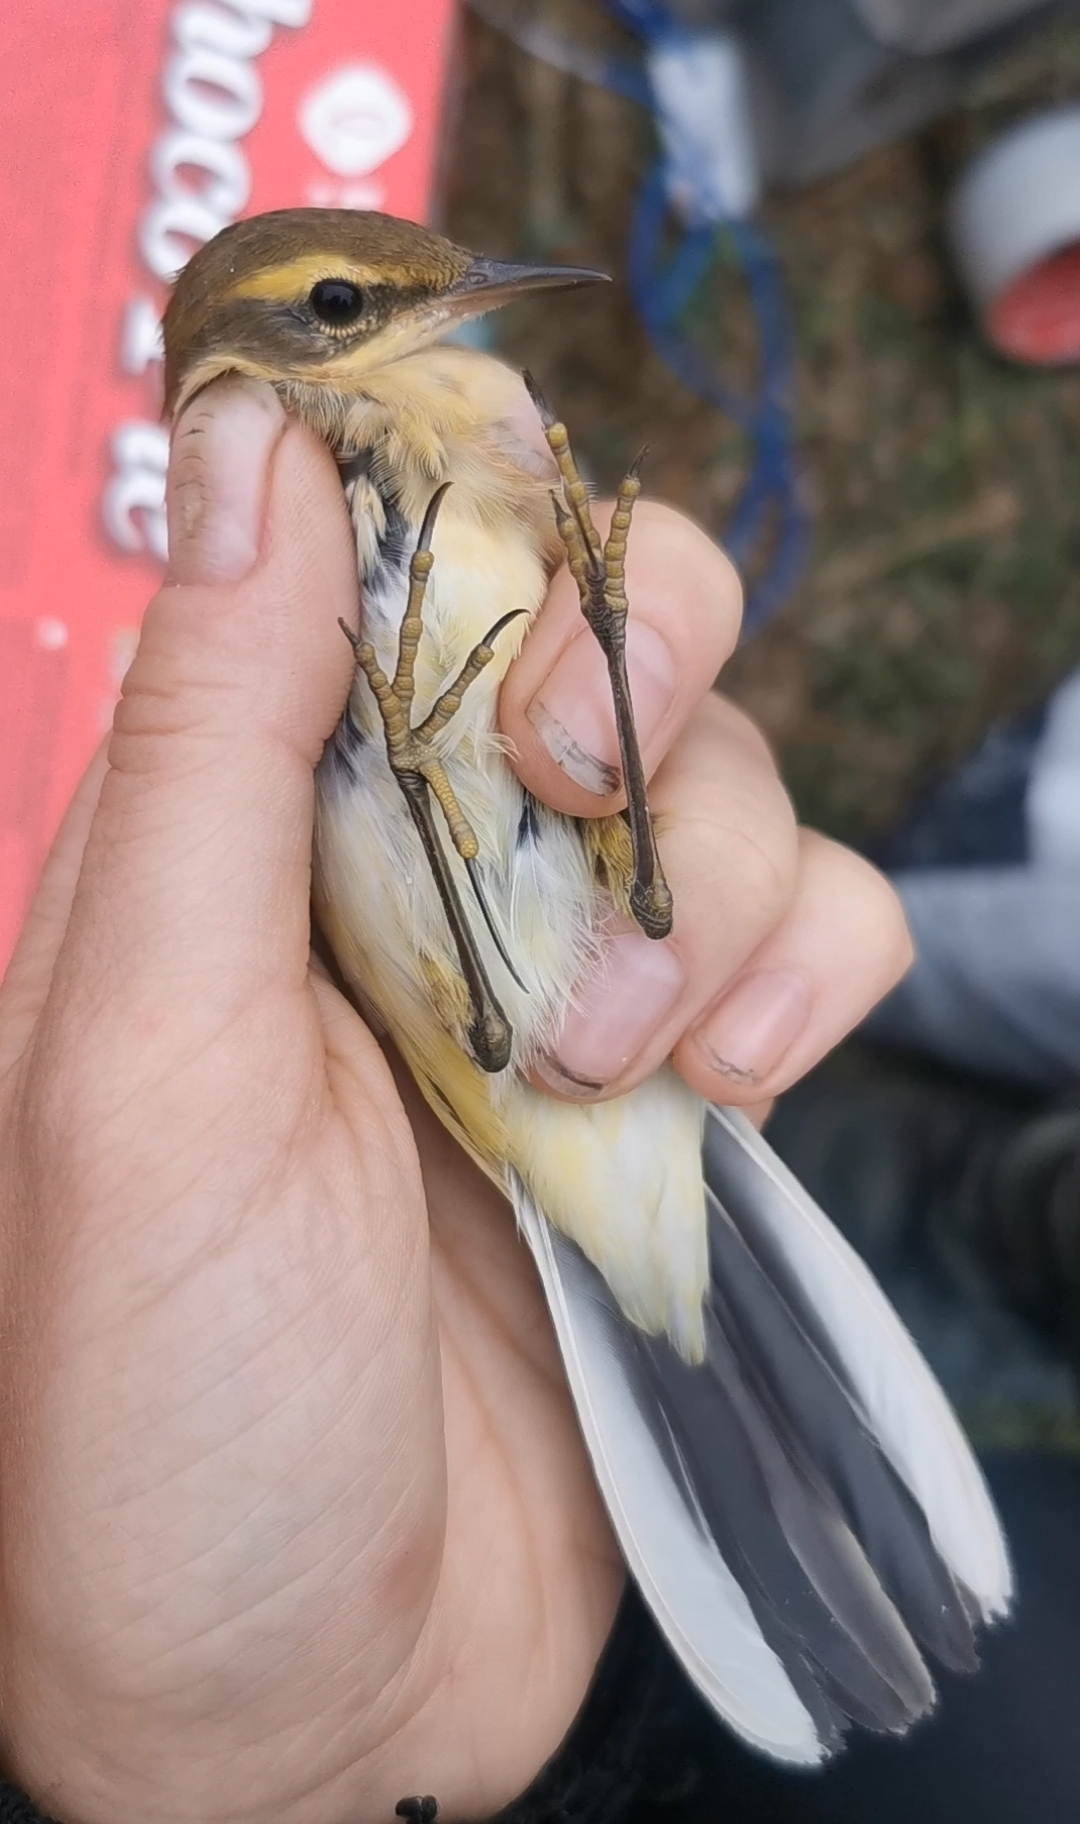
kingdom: Animalia
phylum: Chordata
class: Aves
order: Passeriformes
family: Motacillidae
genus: Motacilla
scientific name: Motacilla tschutschensis
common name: Eastern yellow wagtail
